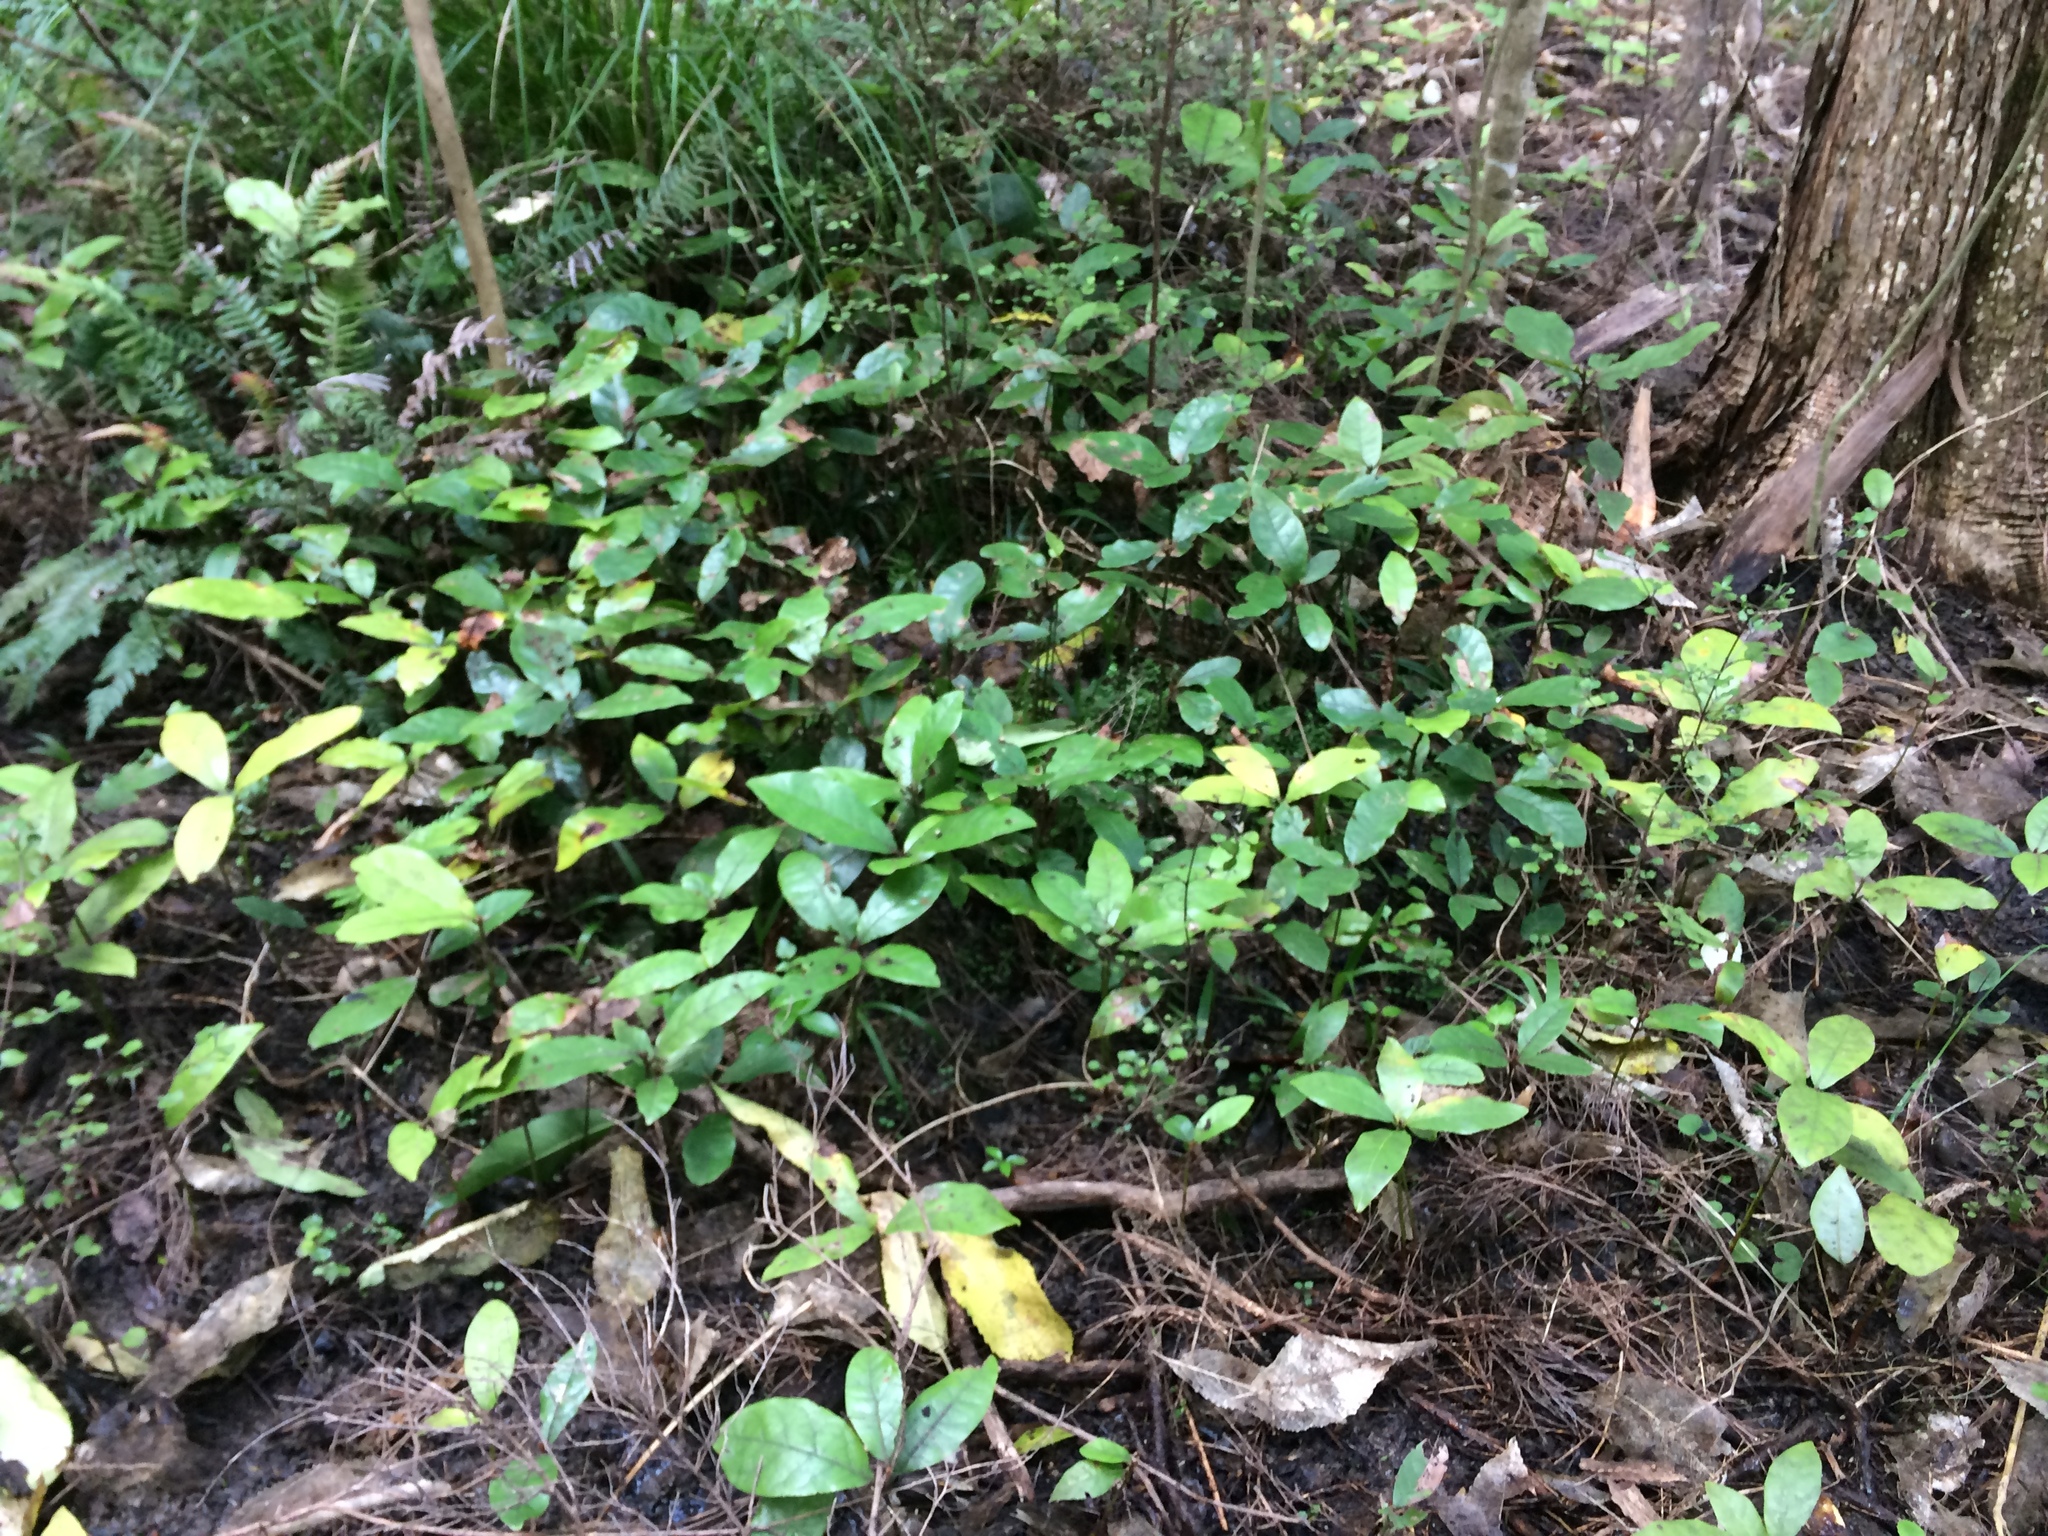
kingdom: Plantae
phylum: Tracheophyta
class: Magnoliopsida
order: Laurales
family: Lauraceae
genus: Beilschmiedia
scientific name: Beilschmiedia tarairi
